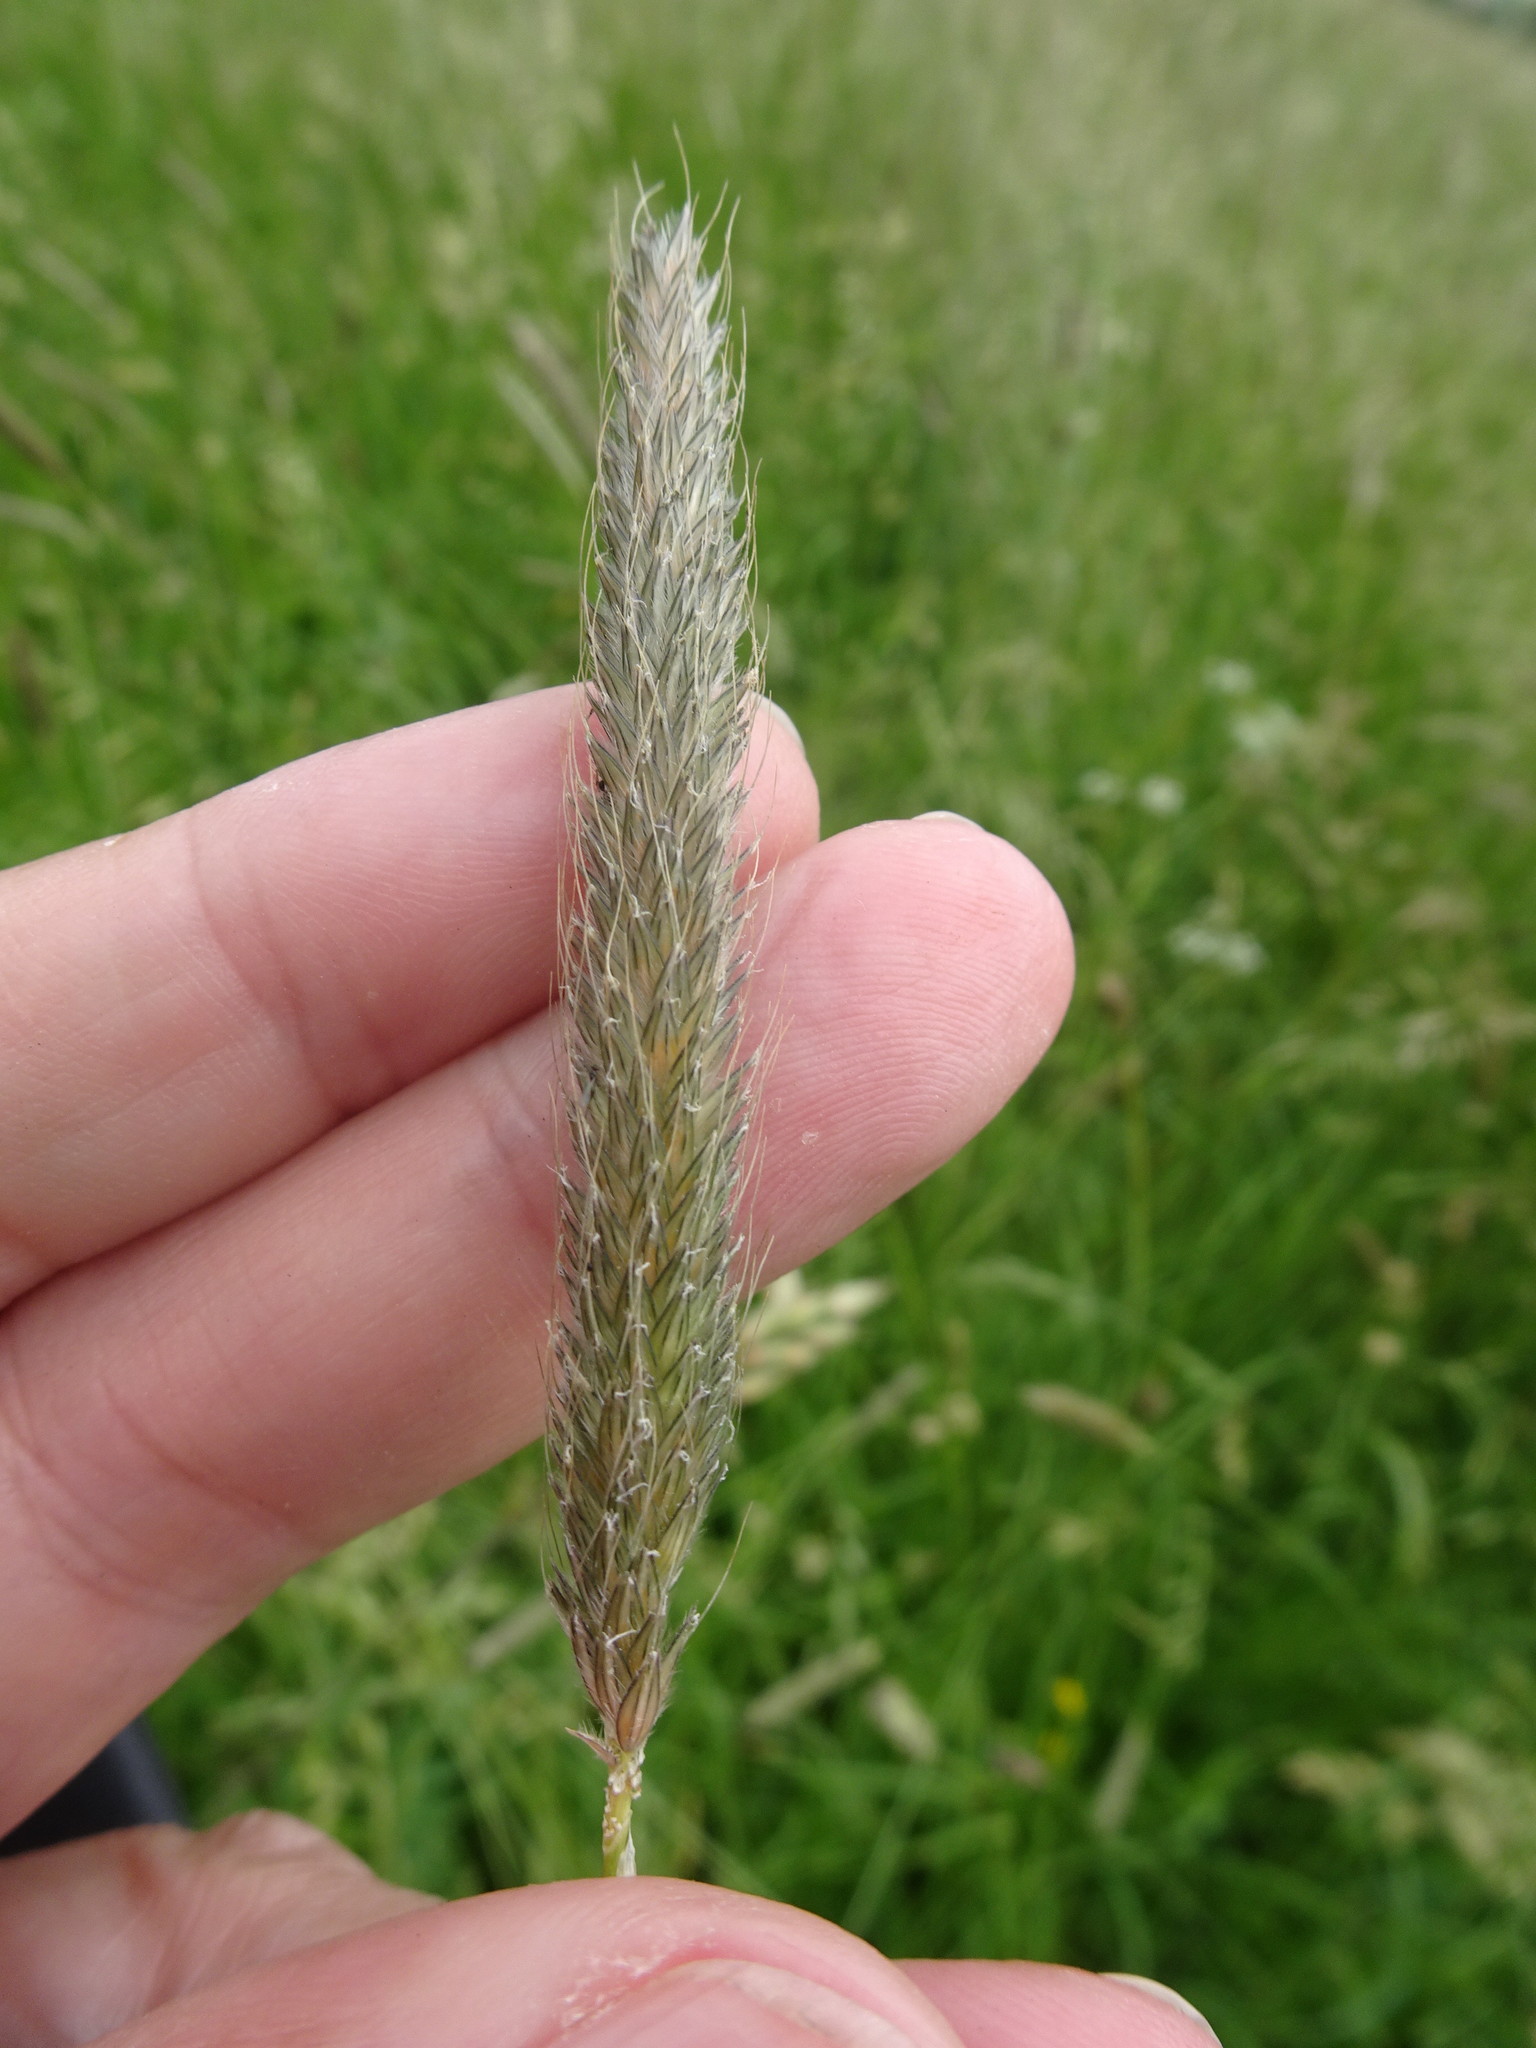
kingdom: Plantae
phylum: Tracheophyta
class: Liliopsida
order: Poales
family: Poaceae
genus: Alopecurus
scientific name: Alopecurus pratensis
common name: Meadow foxtail
